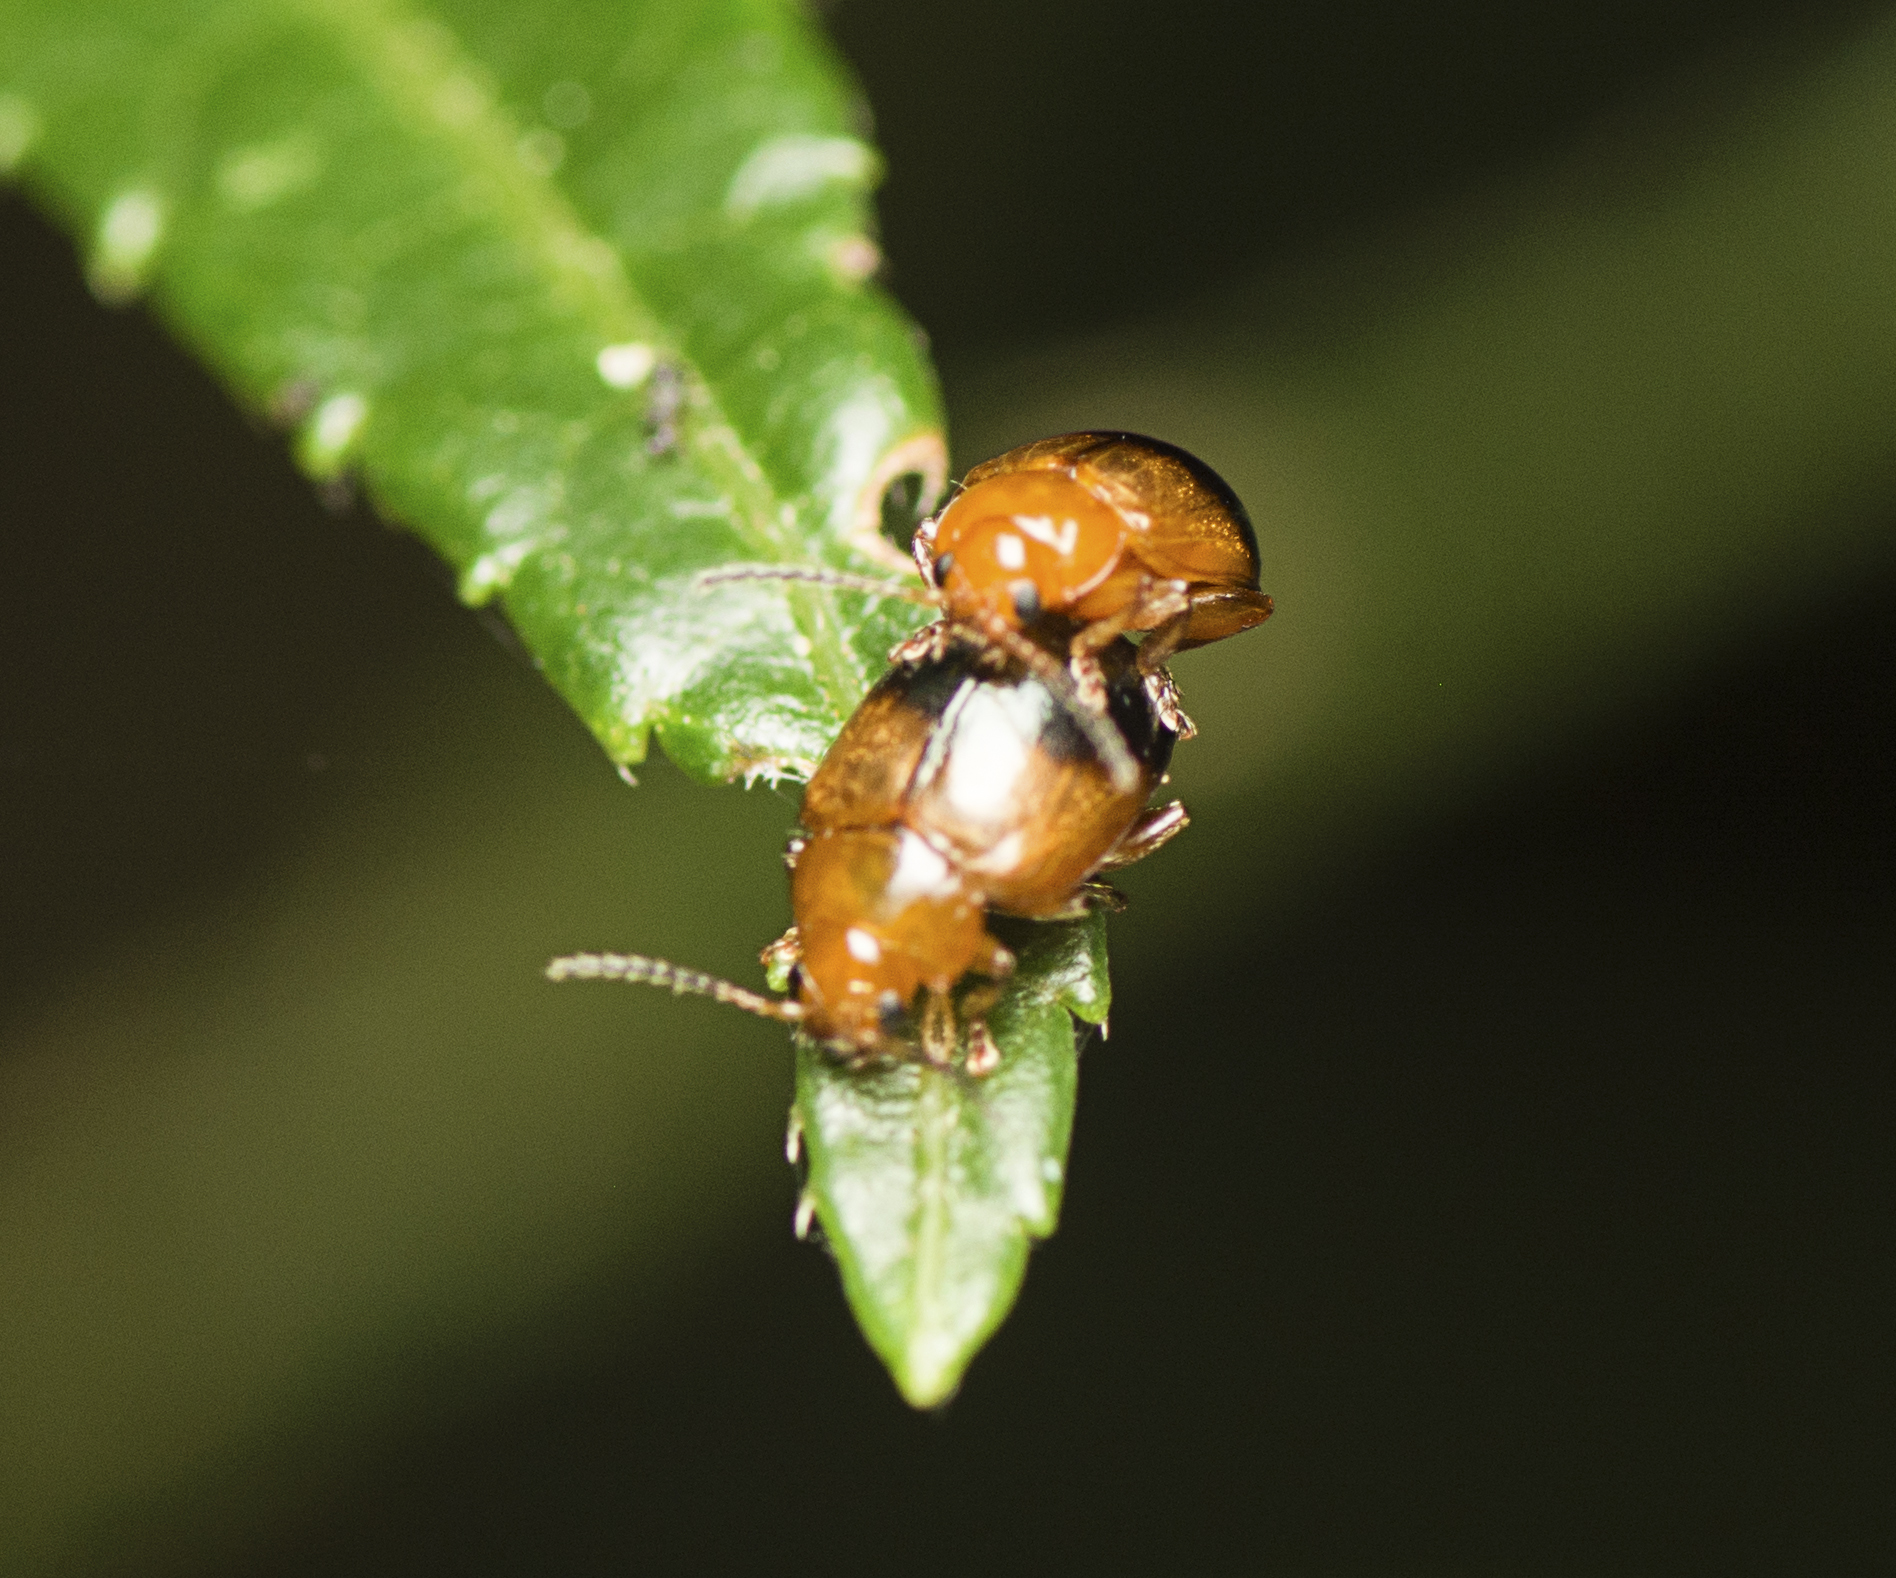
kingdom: Animalia
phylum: Arthropoda
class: Insecta
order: Coleoptera
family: Chrysomelidae
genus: Nisotra
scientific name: Nisotra
